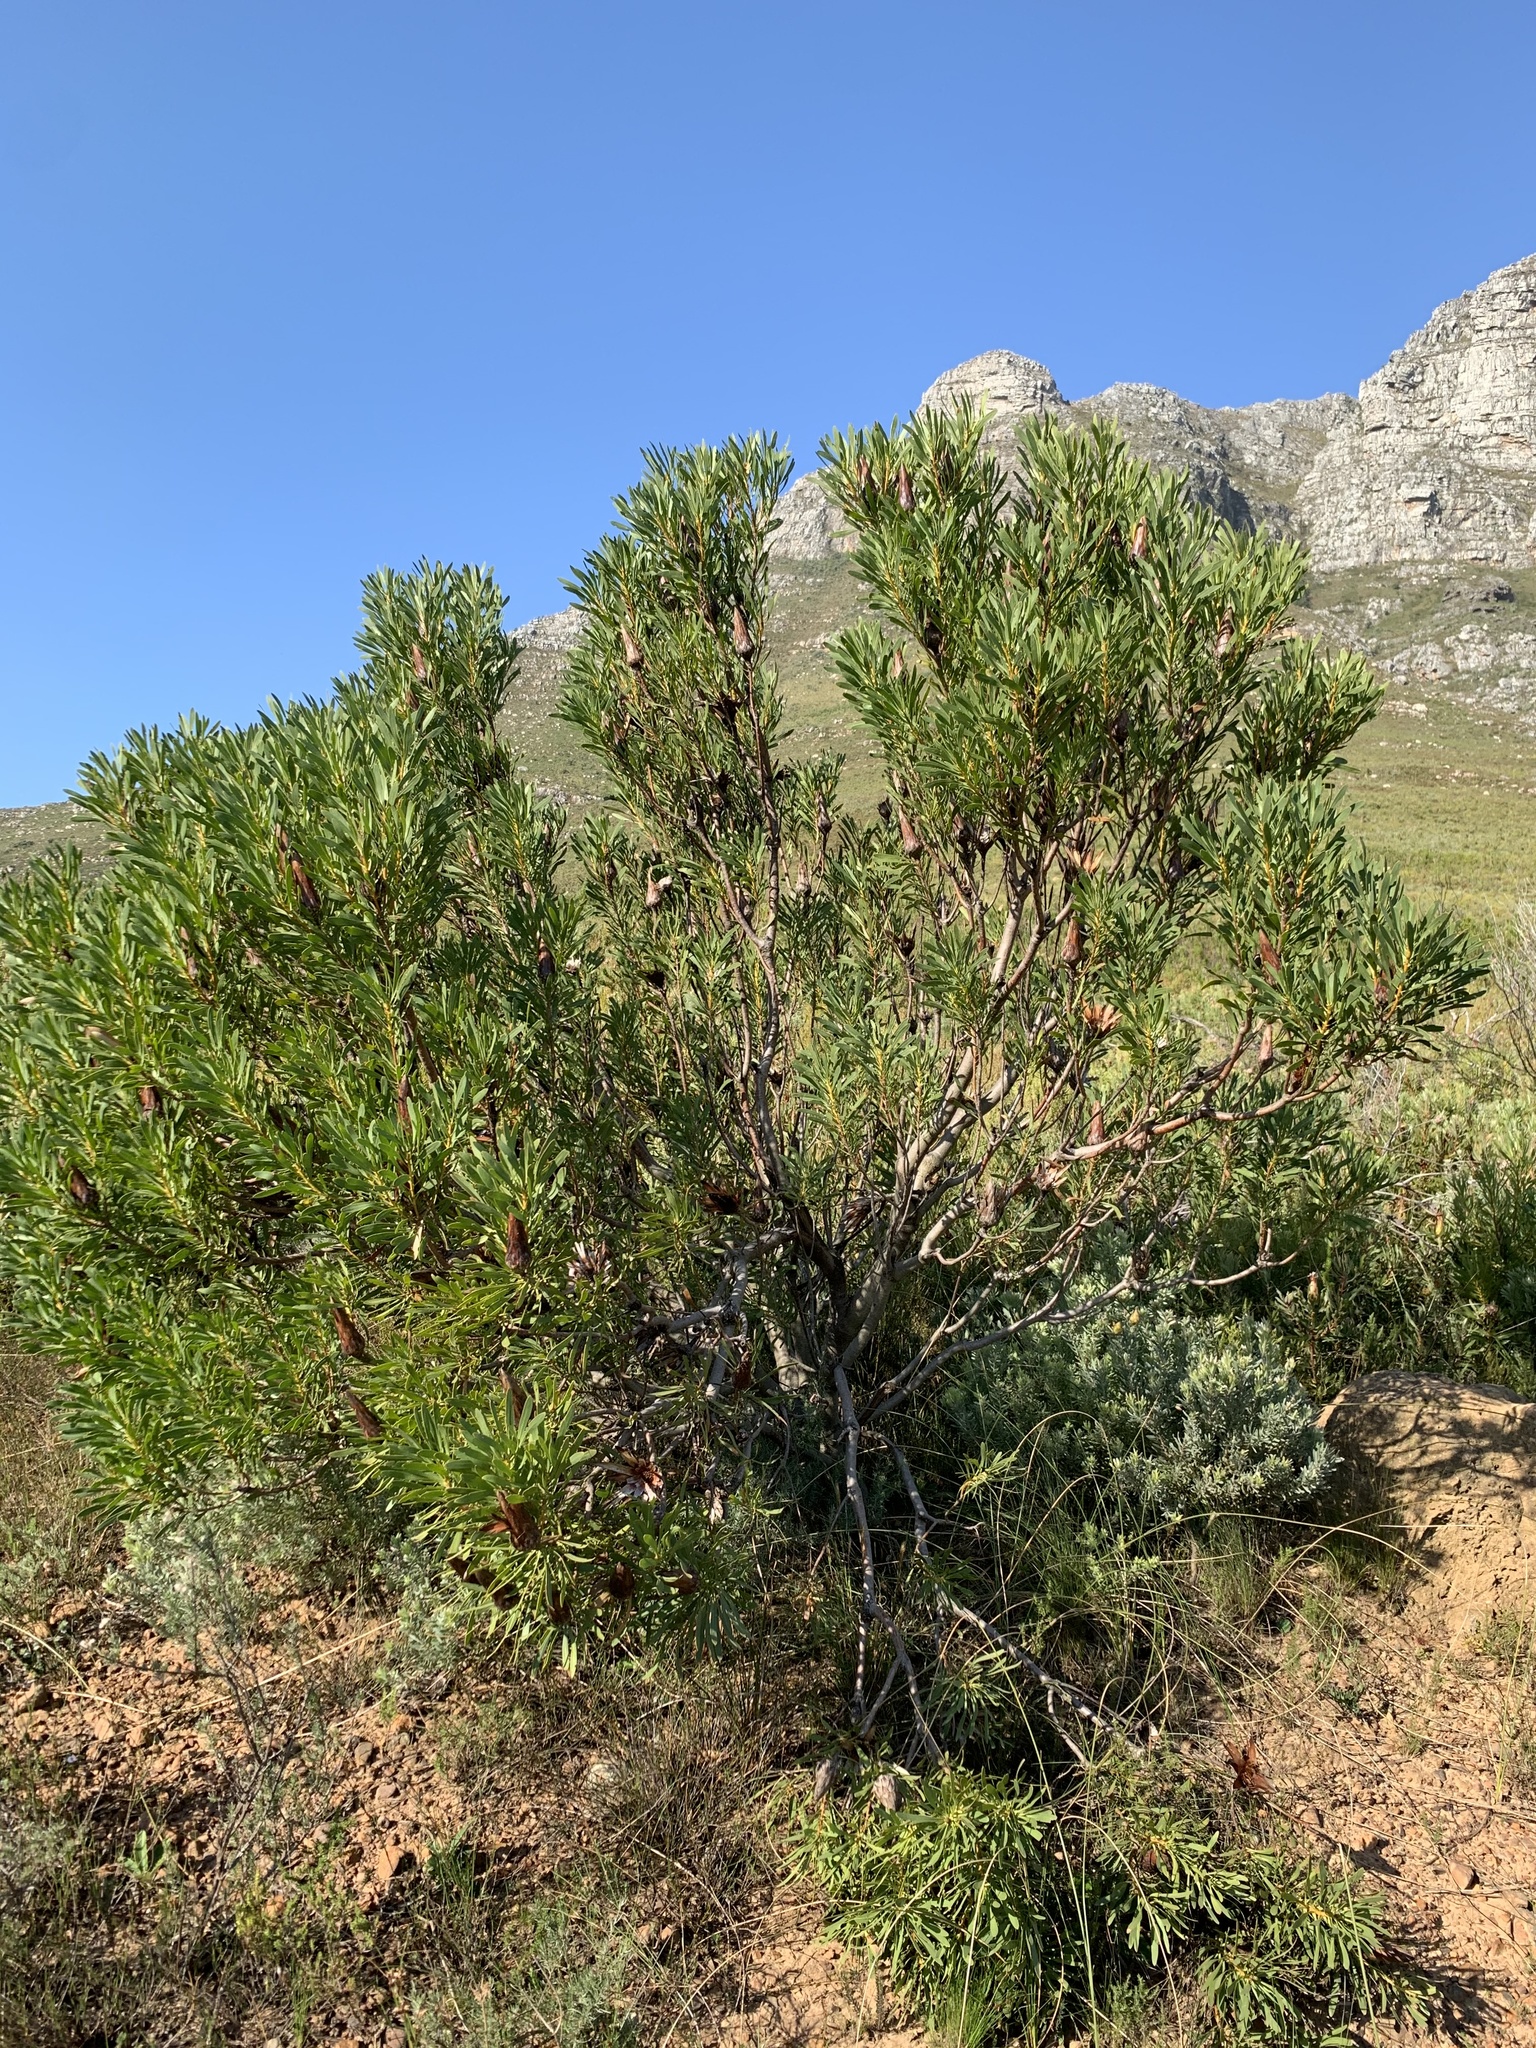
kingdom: Plantae
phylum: Tracheophyta
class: Magnoliopsida
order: Proteales
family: Proteaceae
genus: Protea
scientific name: Protea repens
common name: Sugarbush
